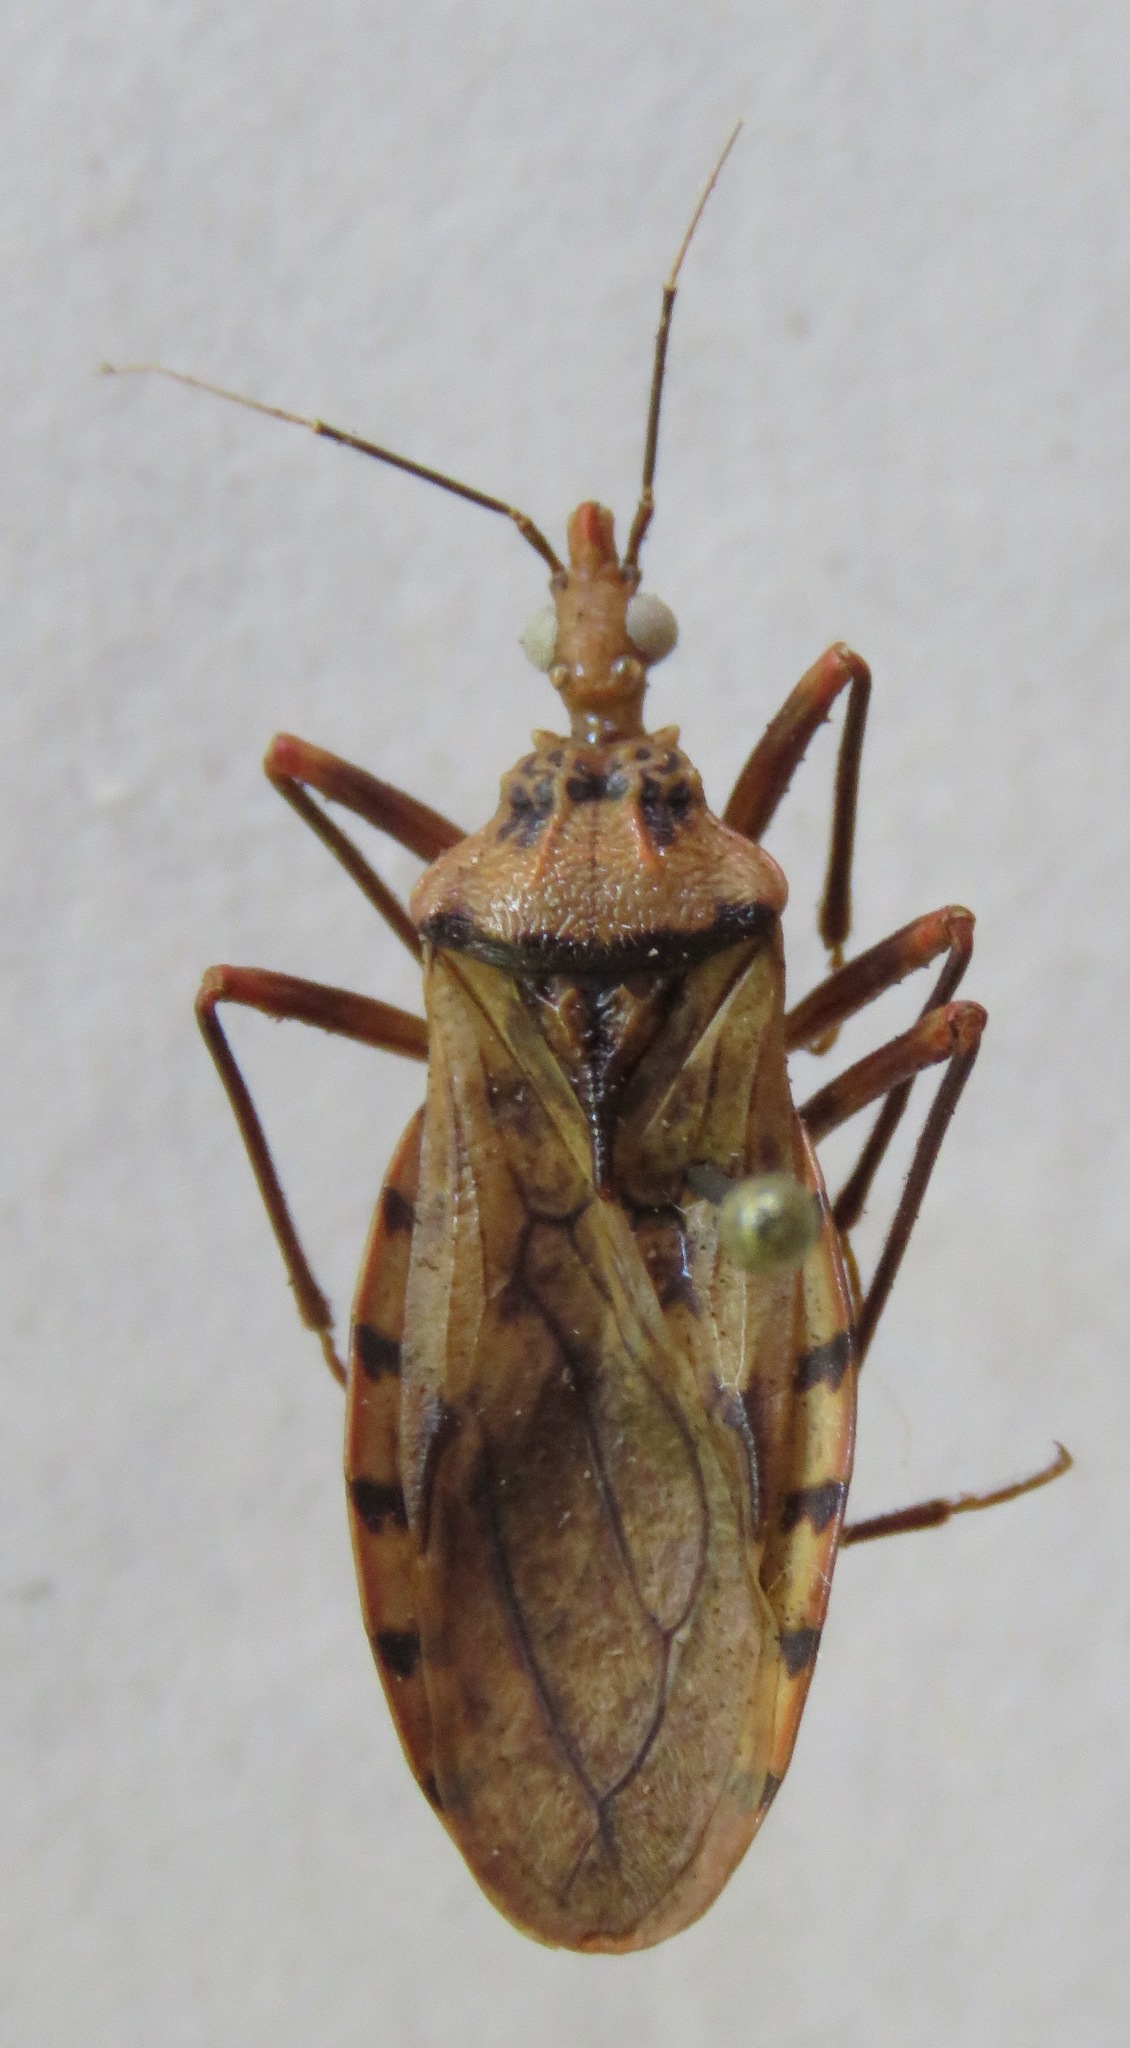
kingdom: Animalia
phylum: Arthropoda
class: Insecta
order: Hemiptera
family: Reduviidae
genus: Panstrongylus
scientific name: Panstrongylus geniculatus
